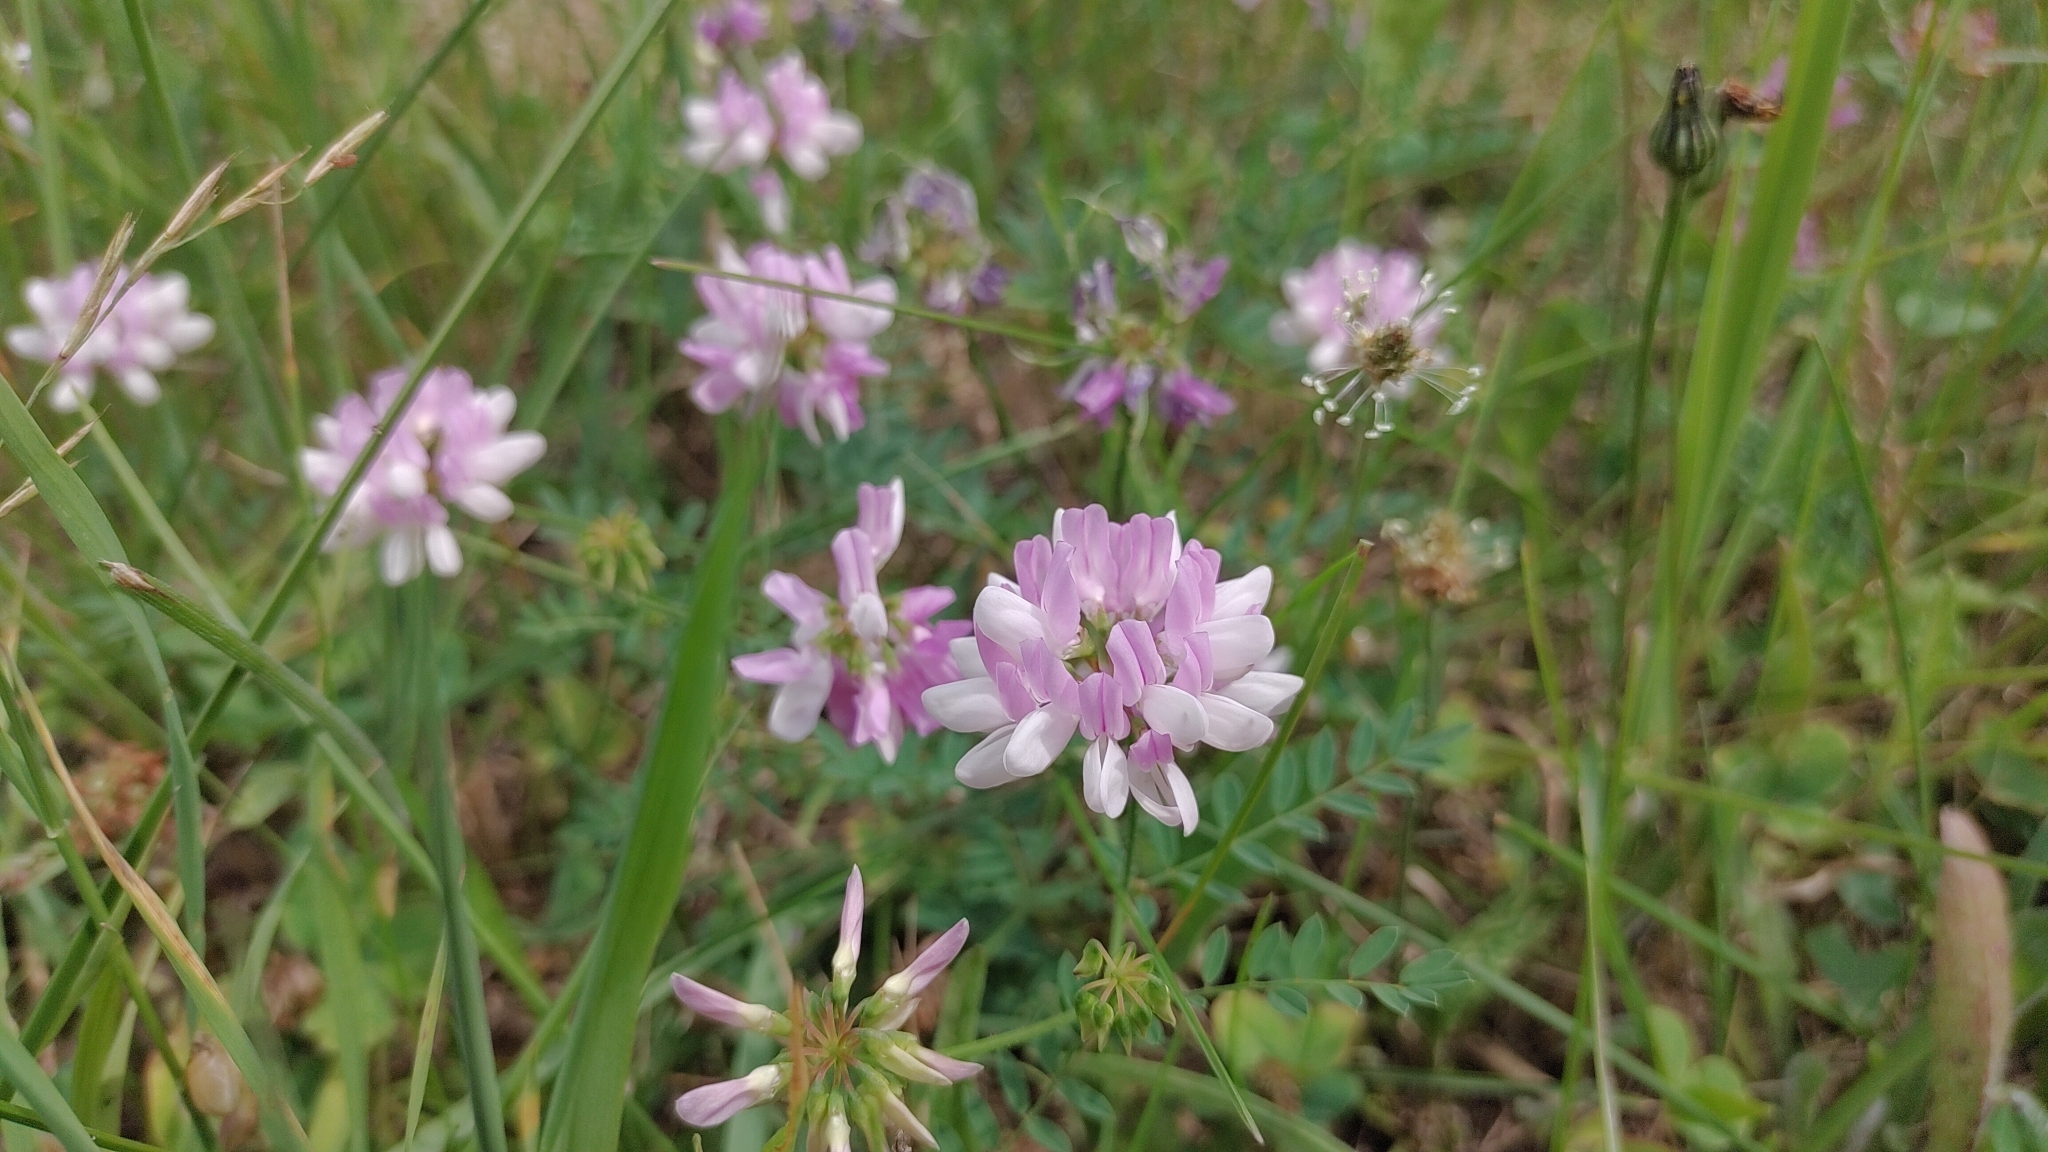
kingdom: Plantae
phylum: Tracheophyta
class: Magnoliopsida
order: Fabales
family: Fabaceae
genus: Coronilla
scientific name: Coronilla varia
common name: Crownvetch
